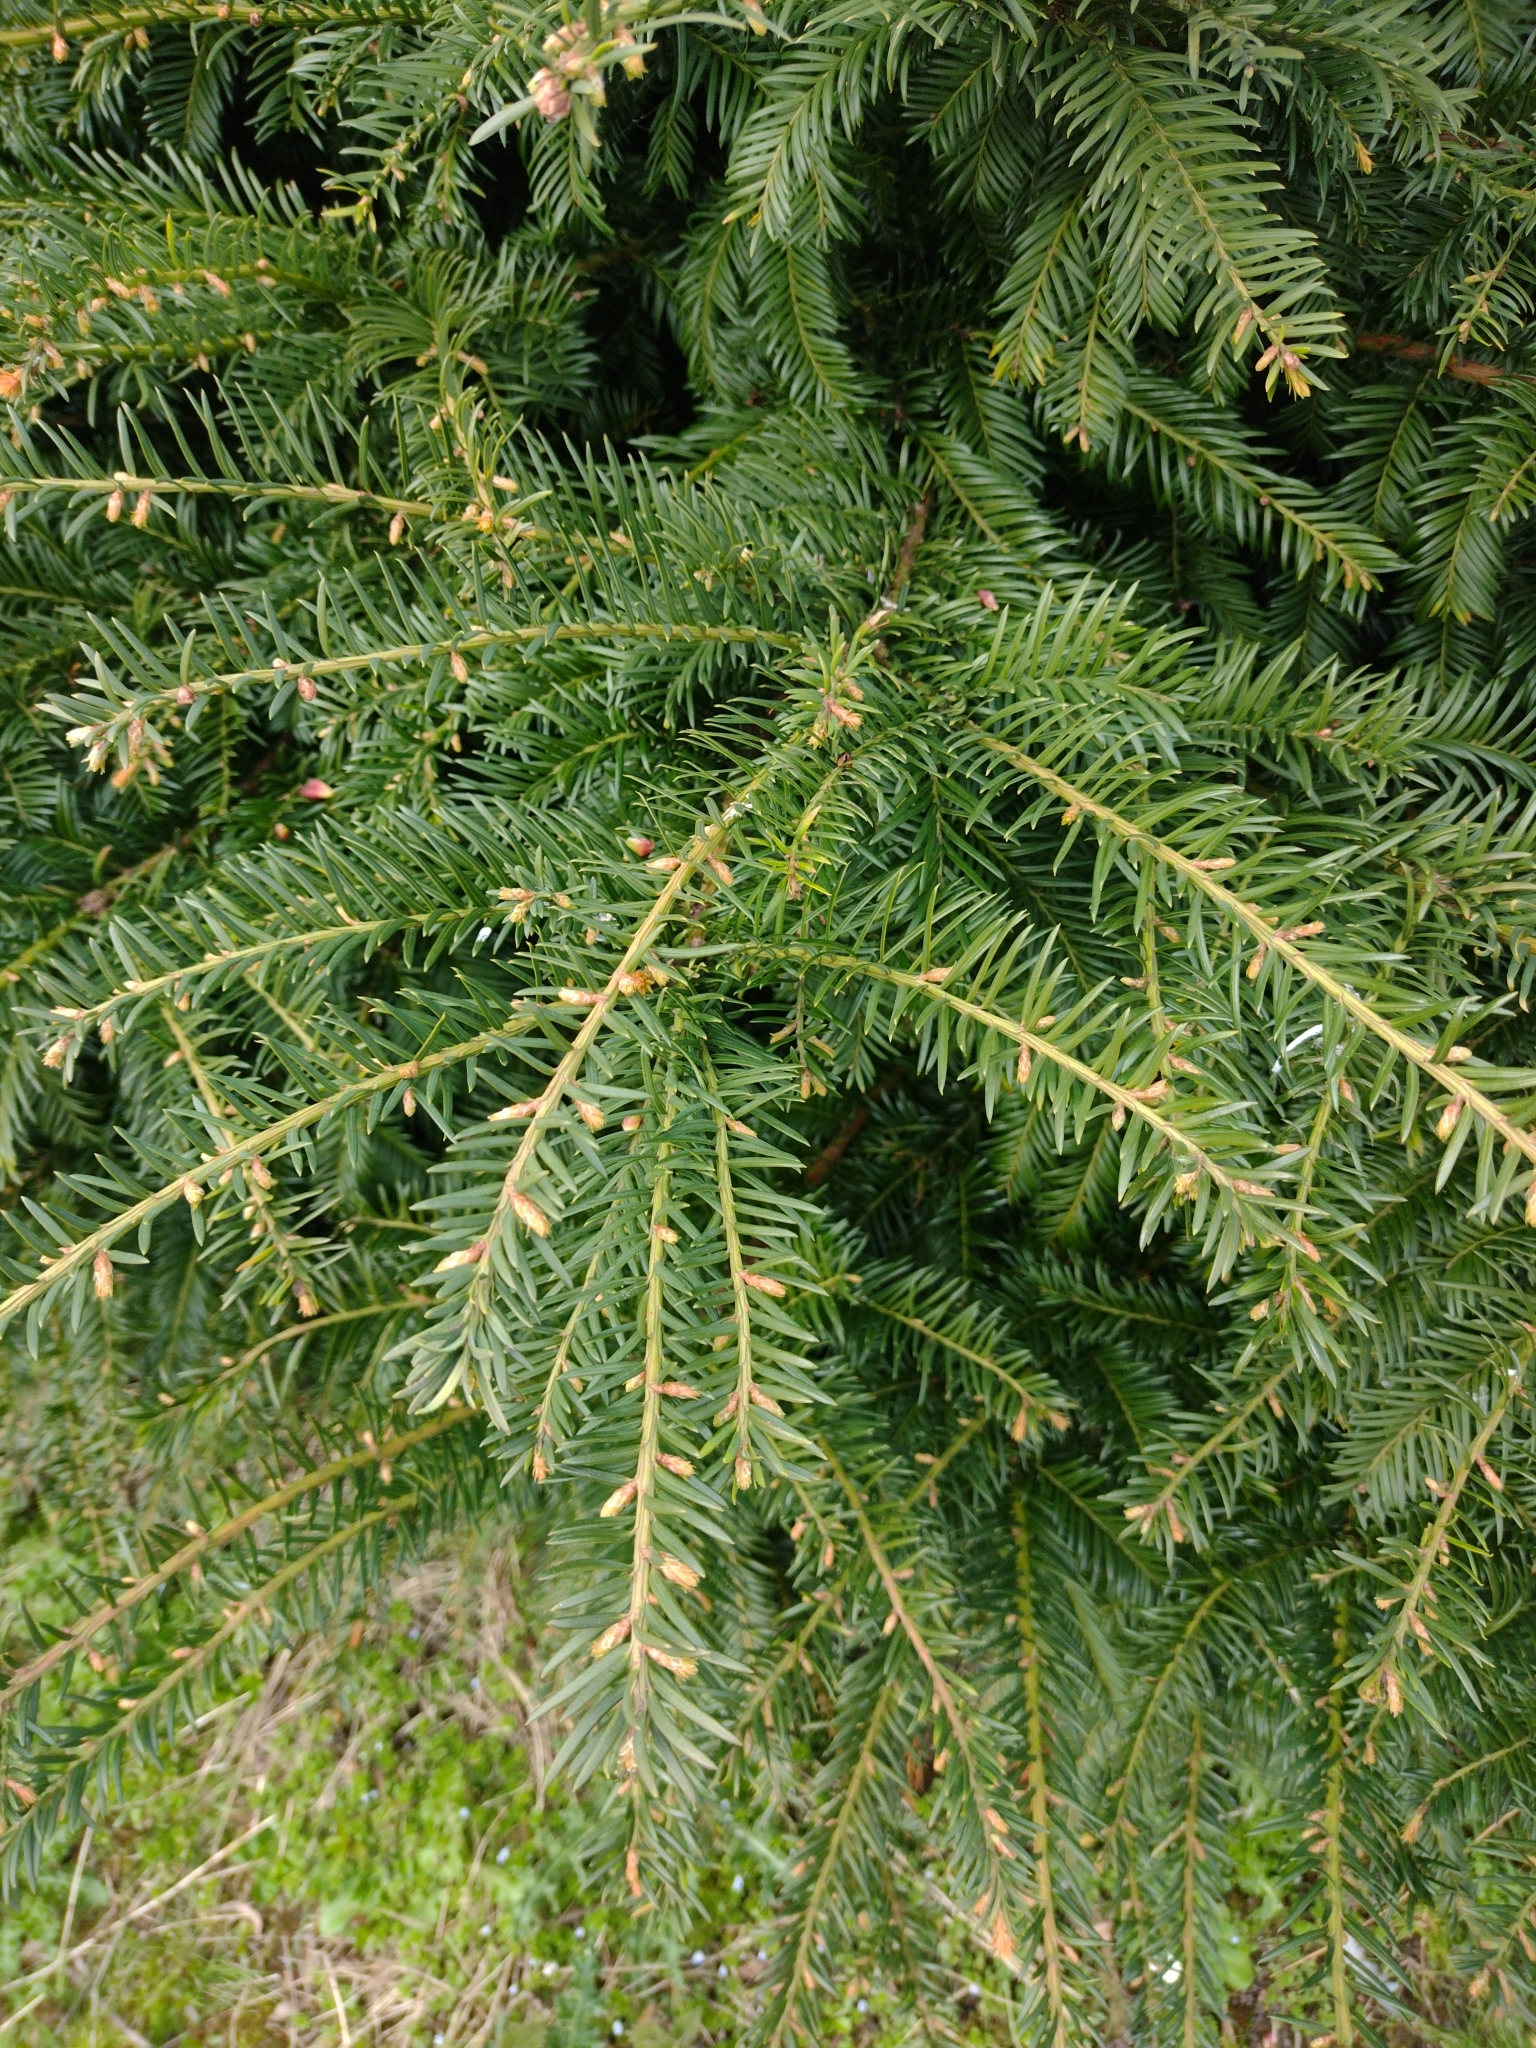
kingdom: Plantae
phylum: Tracheophyta
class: Pinopsida
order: Pinales
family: Taxaceae
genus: Taxus
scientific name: Taxus baccata
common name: Yew
